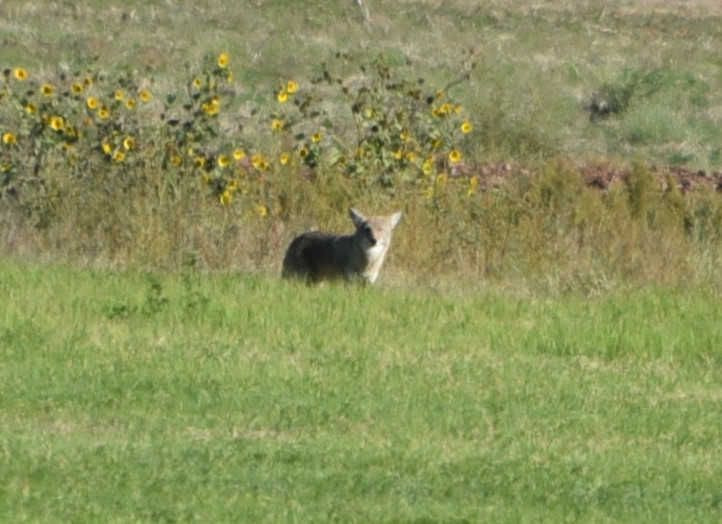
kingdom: Animalia
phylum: Chordata
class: Mammalia
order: Carnivora
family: Canidae
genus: Canis
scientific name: Canis latrans
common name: Coyote
